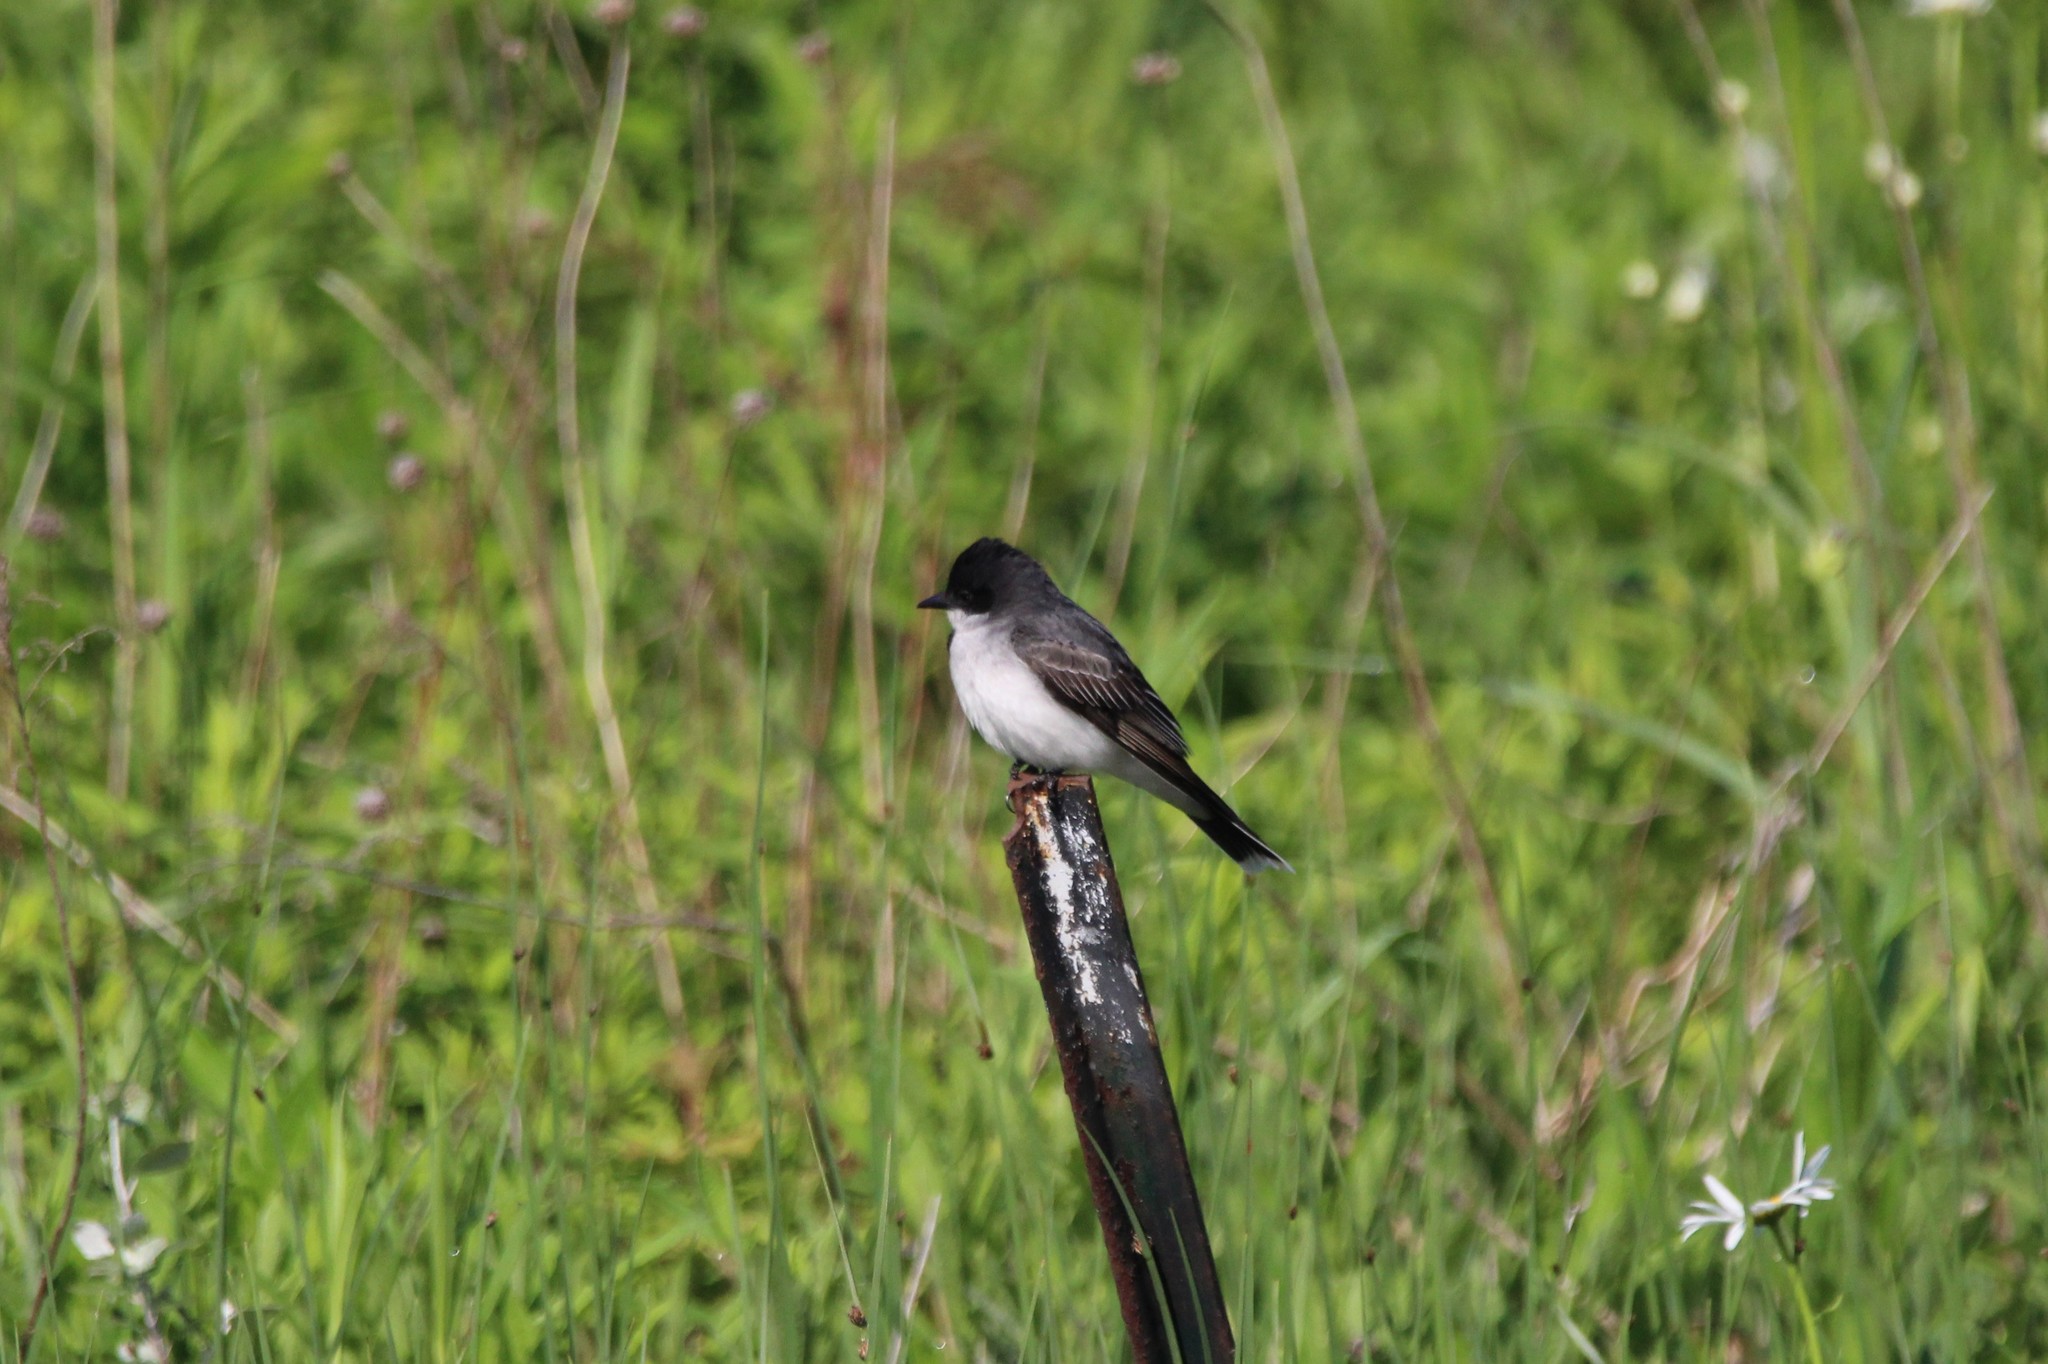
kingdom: Animalia
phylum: Chordata
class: Aves
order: Passeriformes
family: Tyrannidae
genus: Tyrannus
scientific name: Tyrannus tyrannus
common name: Eastern kingbird
